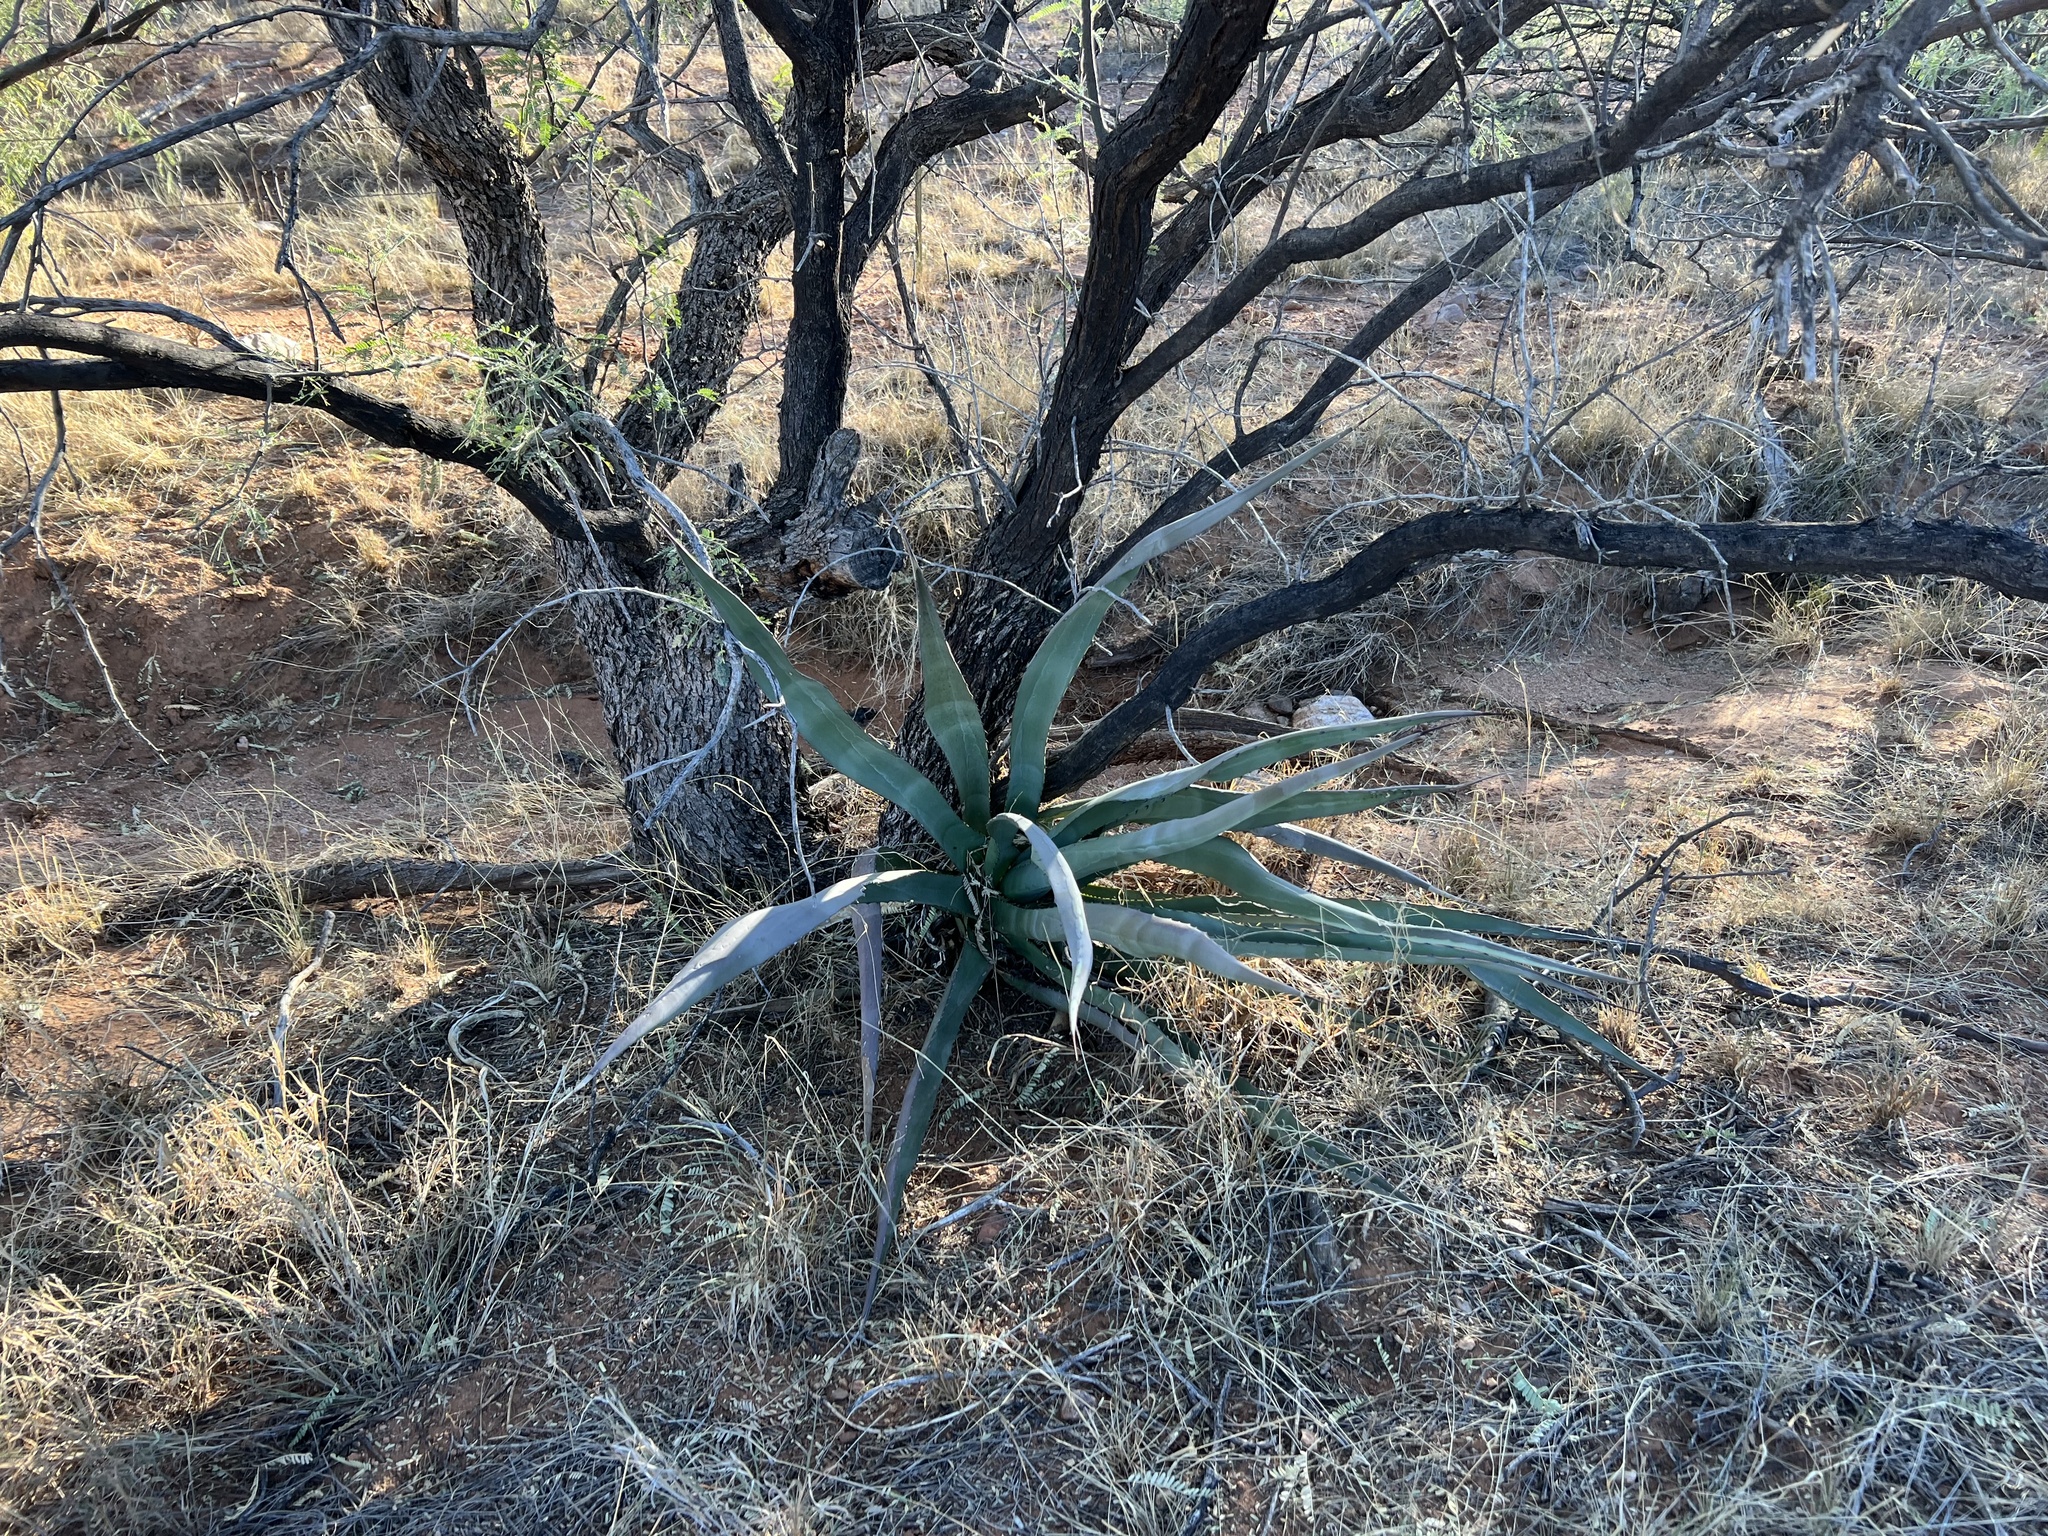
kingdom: Plantae
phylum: Tracheophyta
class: Liliopsida
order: Asparagales
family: Asparagaceae
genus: Agave
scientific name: Agave palmeri
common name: Palmer agave
